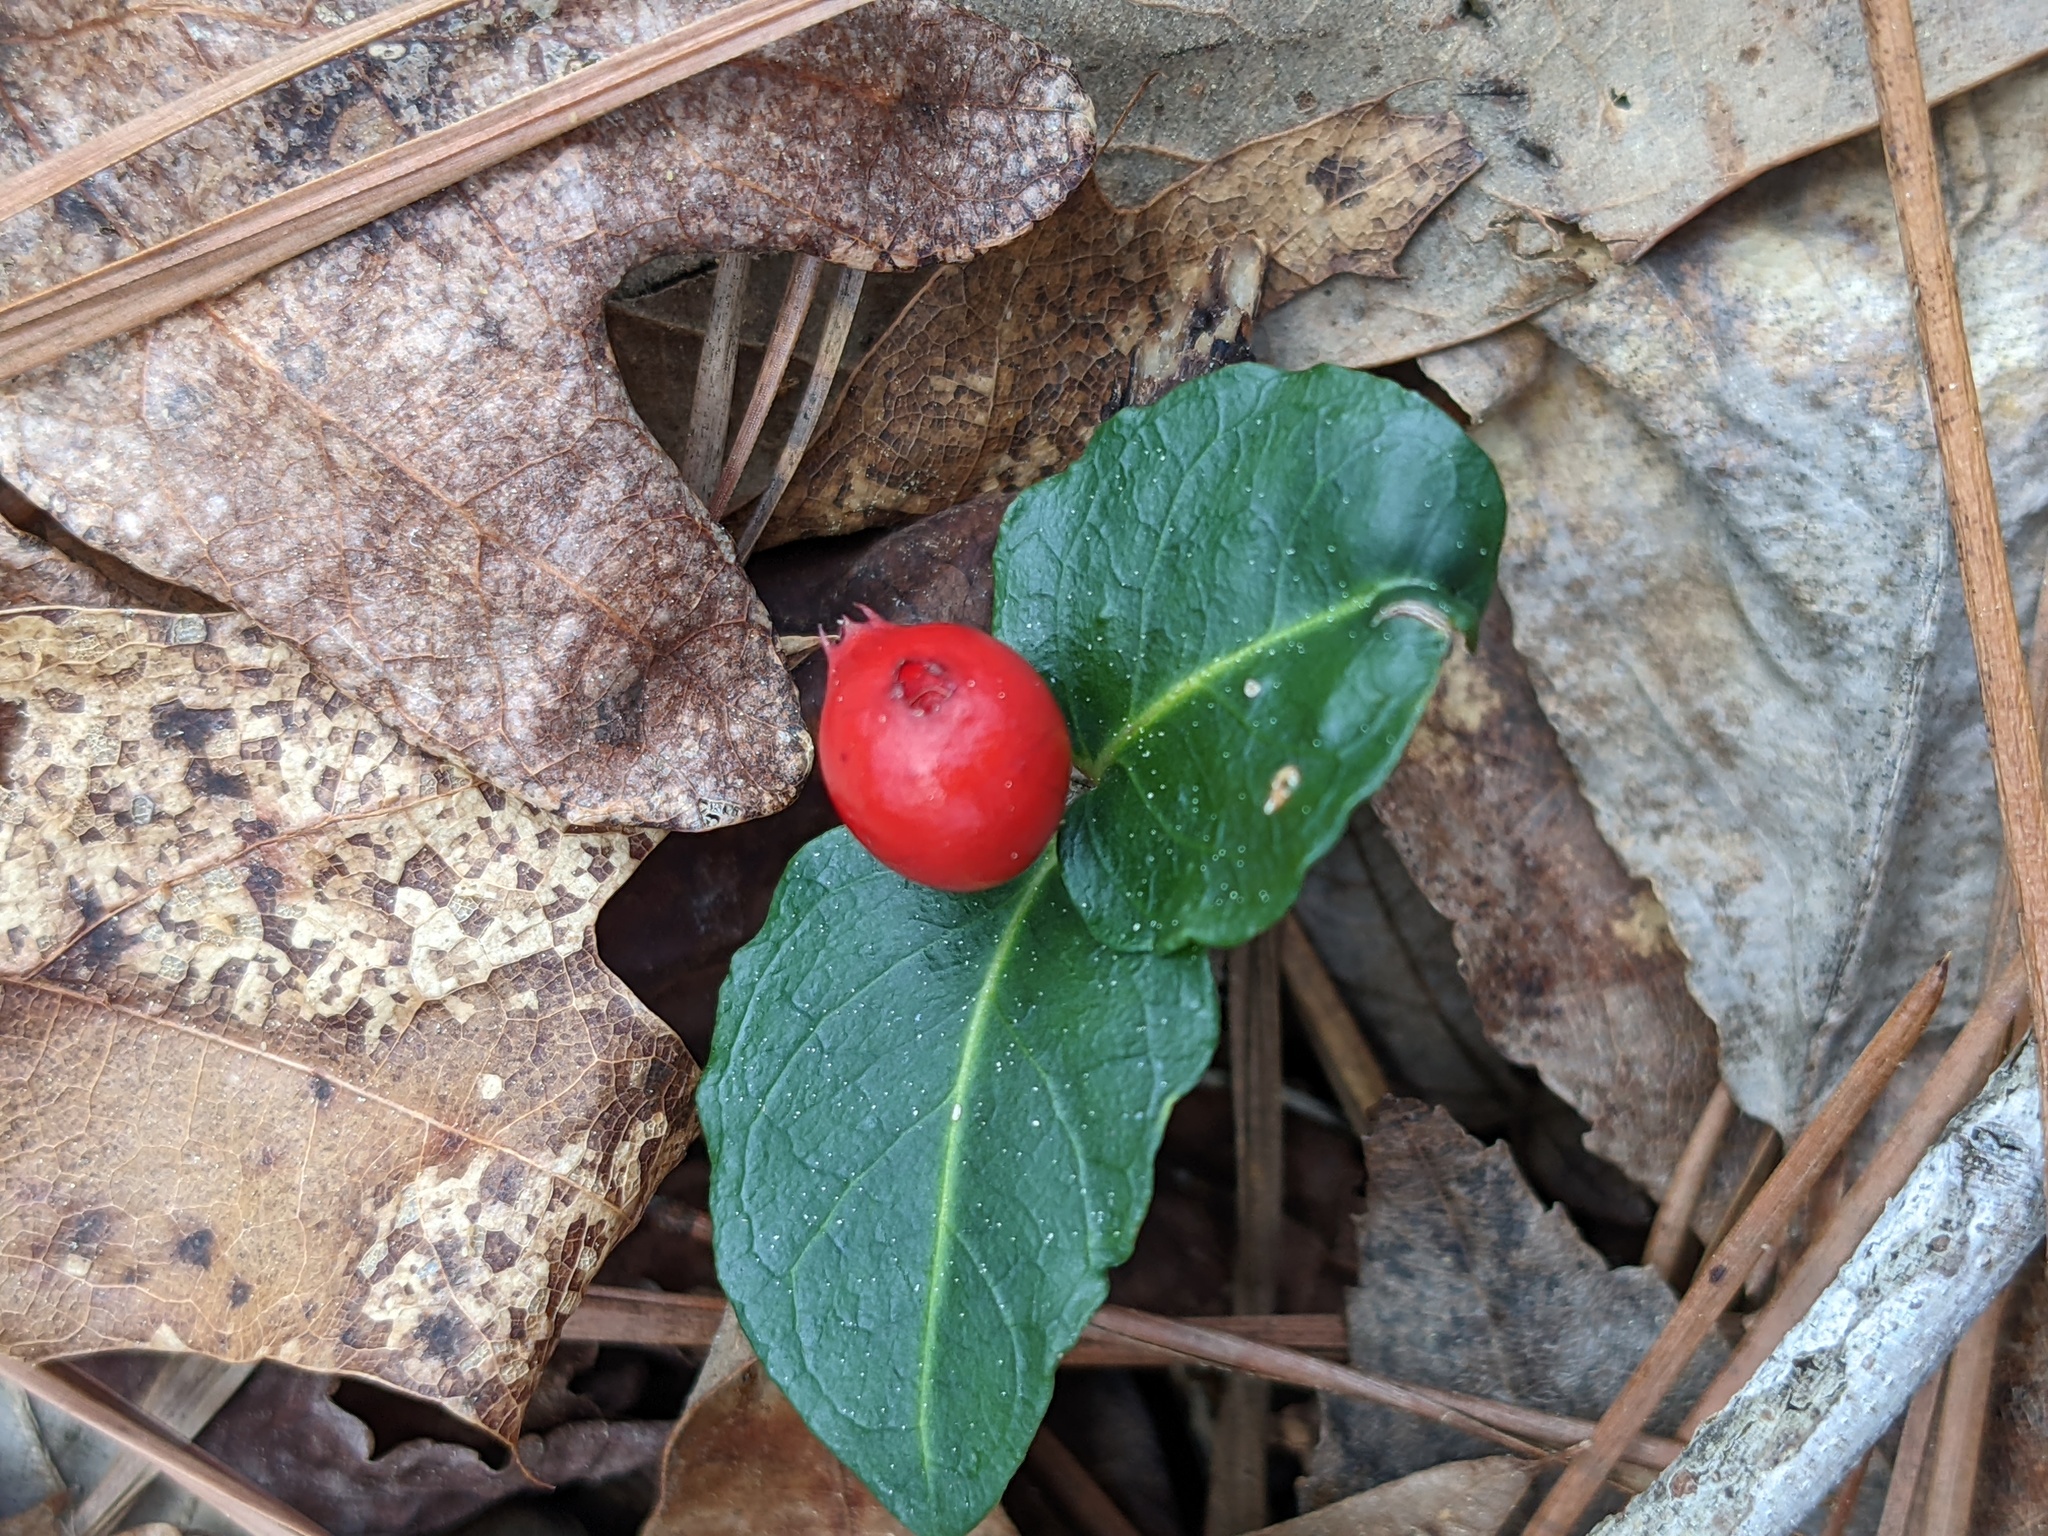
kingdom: Plantae
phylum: Tracheophyta
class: Magnoliopsida
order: Gentianales
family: Rubiaceae
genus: Mitchella
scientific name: Mitchella repens
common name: Partridge-berry
